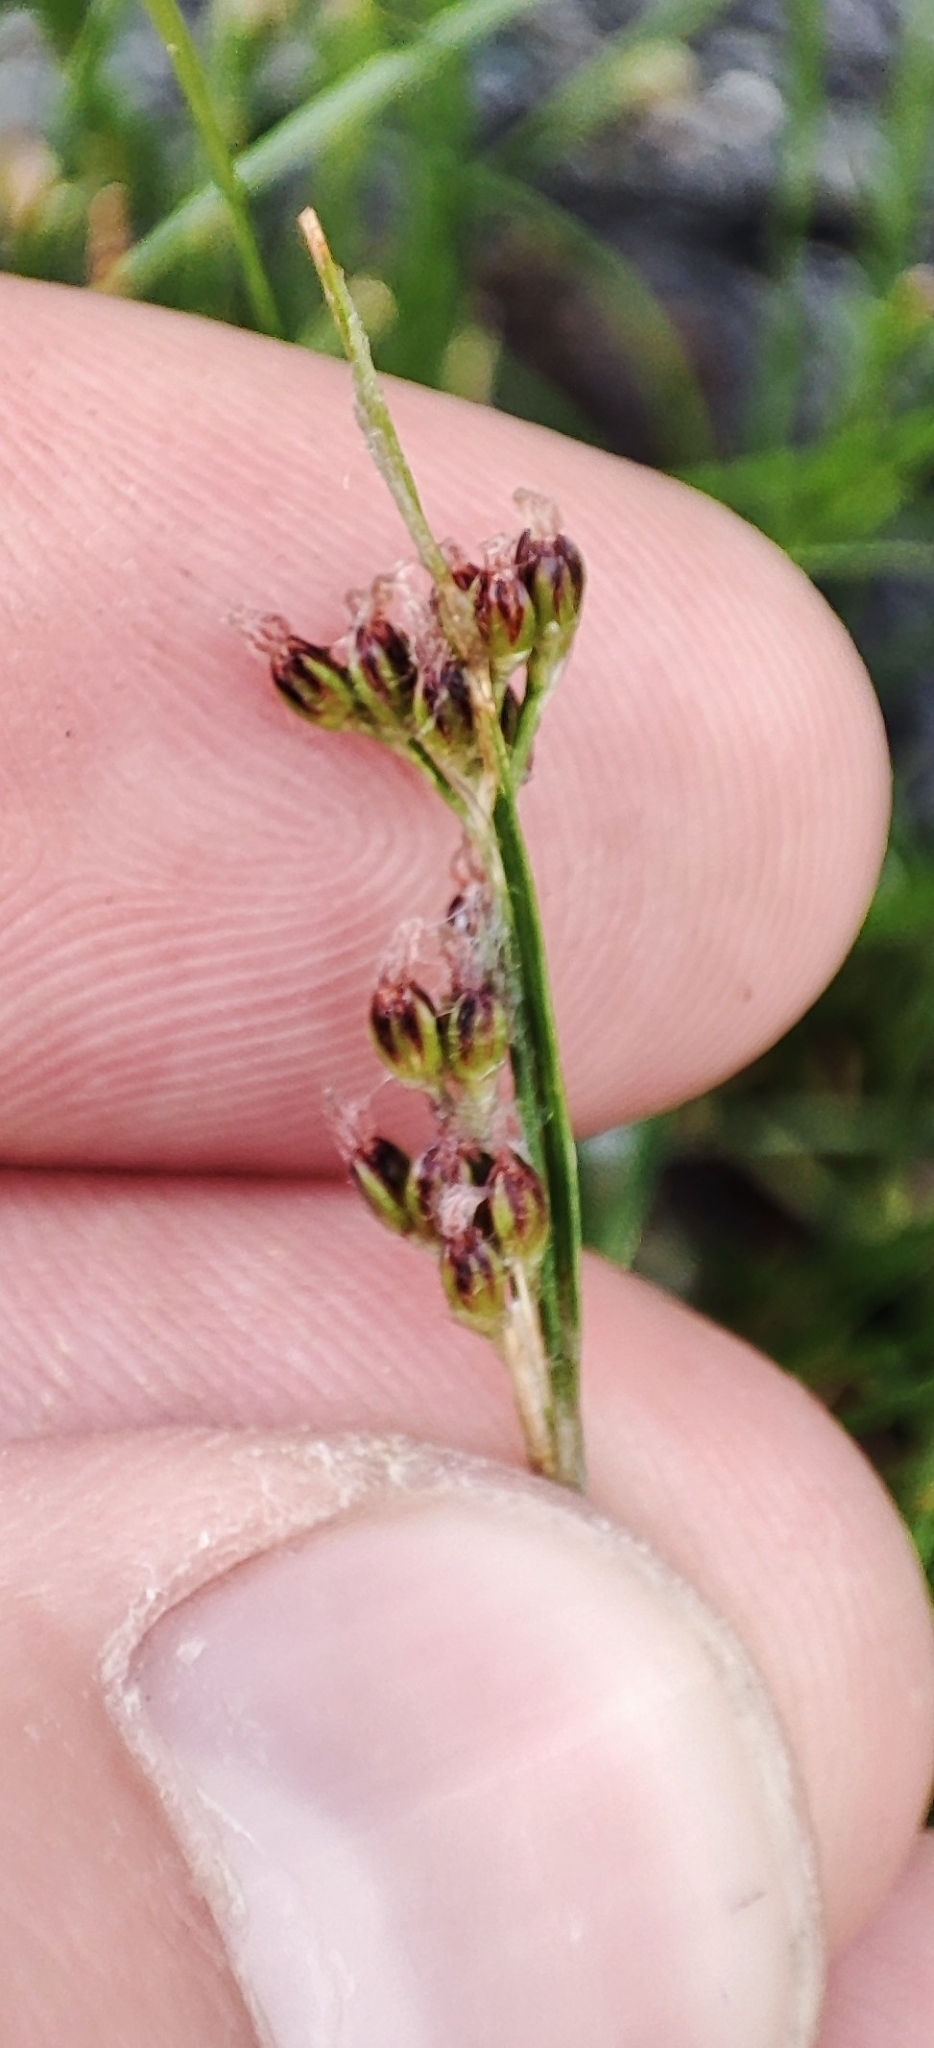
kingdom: Plantae
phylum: Tracheophyta
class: Liliopsida
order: Poales
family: Juncaceae
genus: Juncus
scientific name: Juncus compressus
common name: Round-fruited rush
